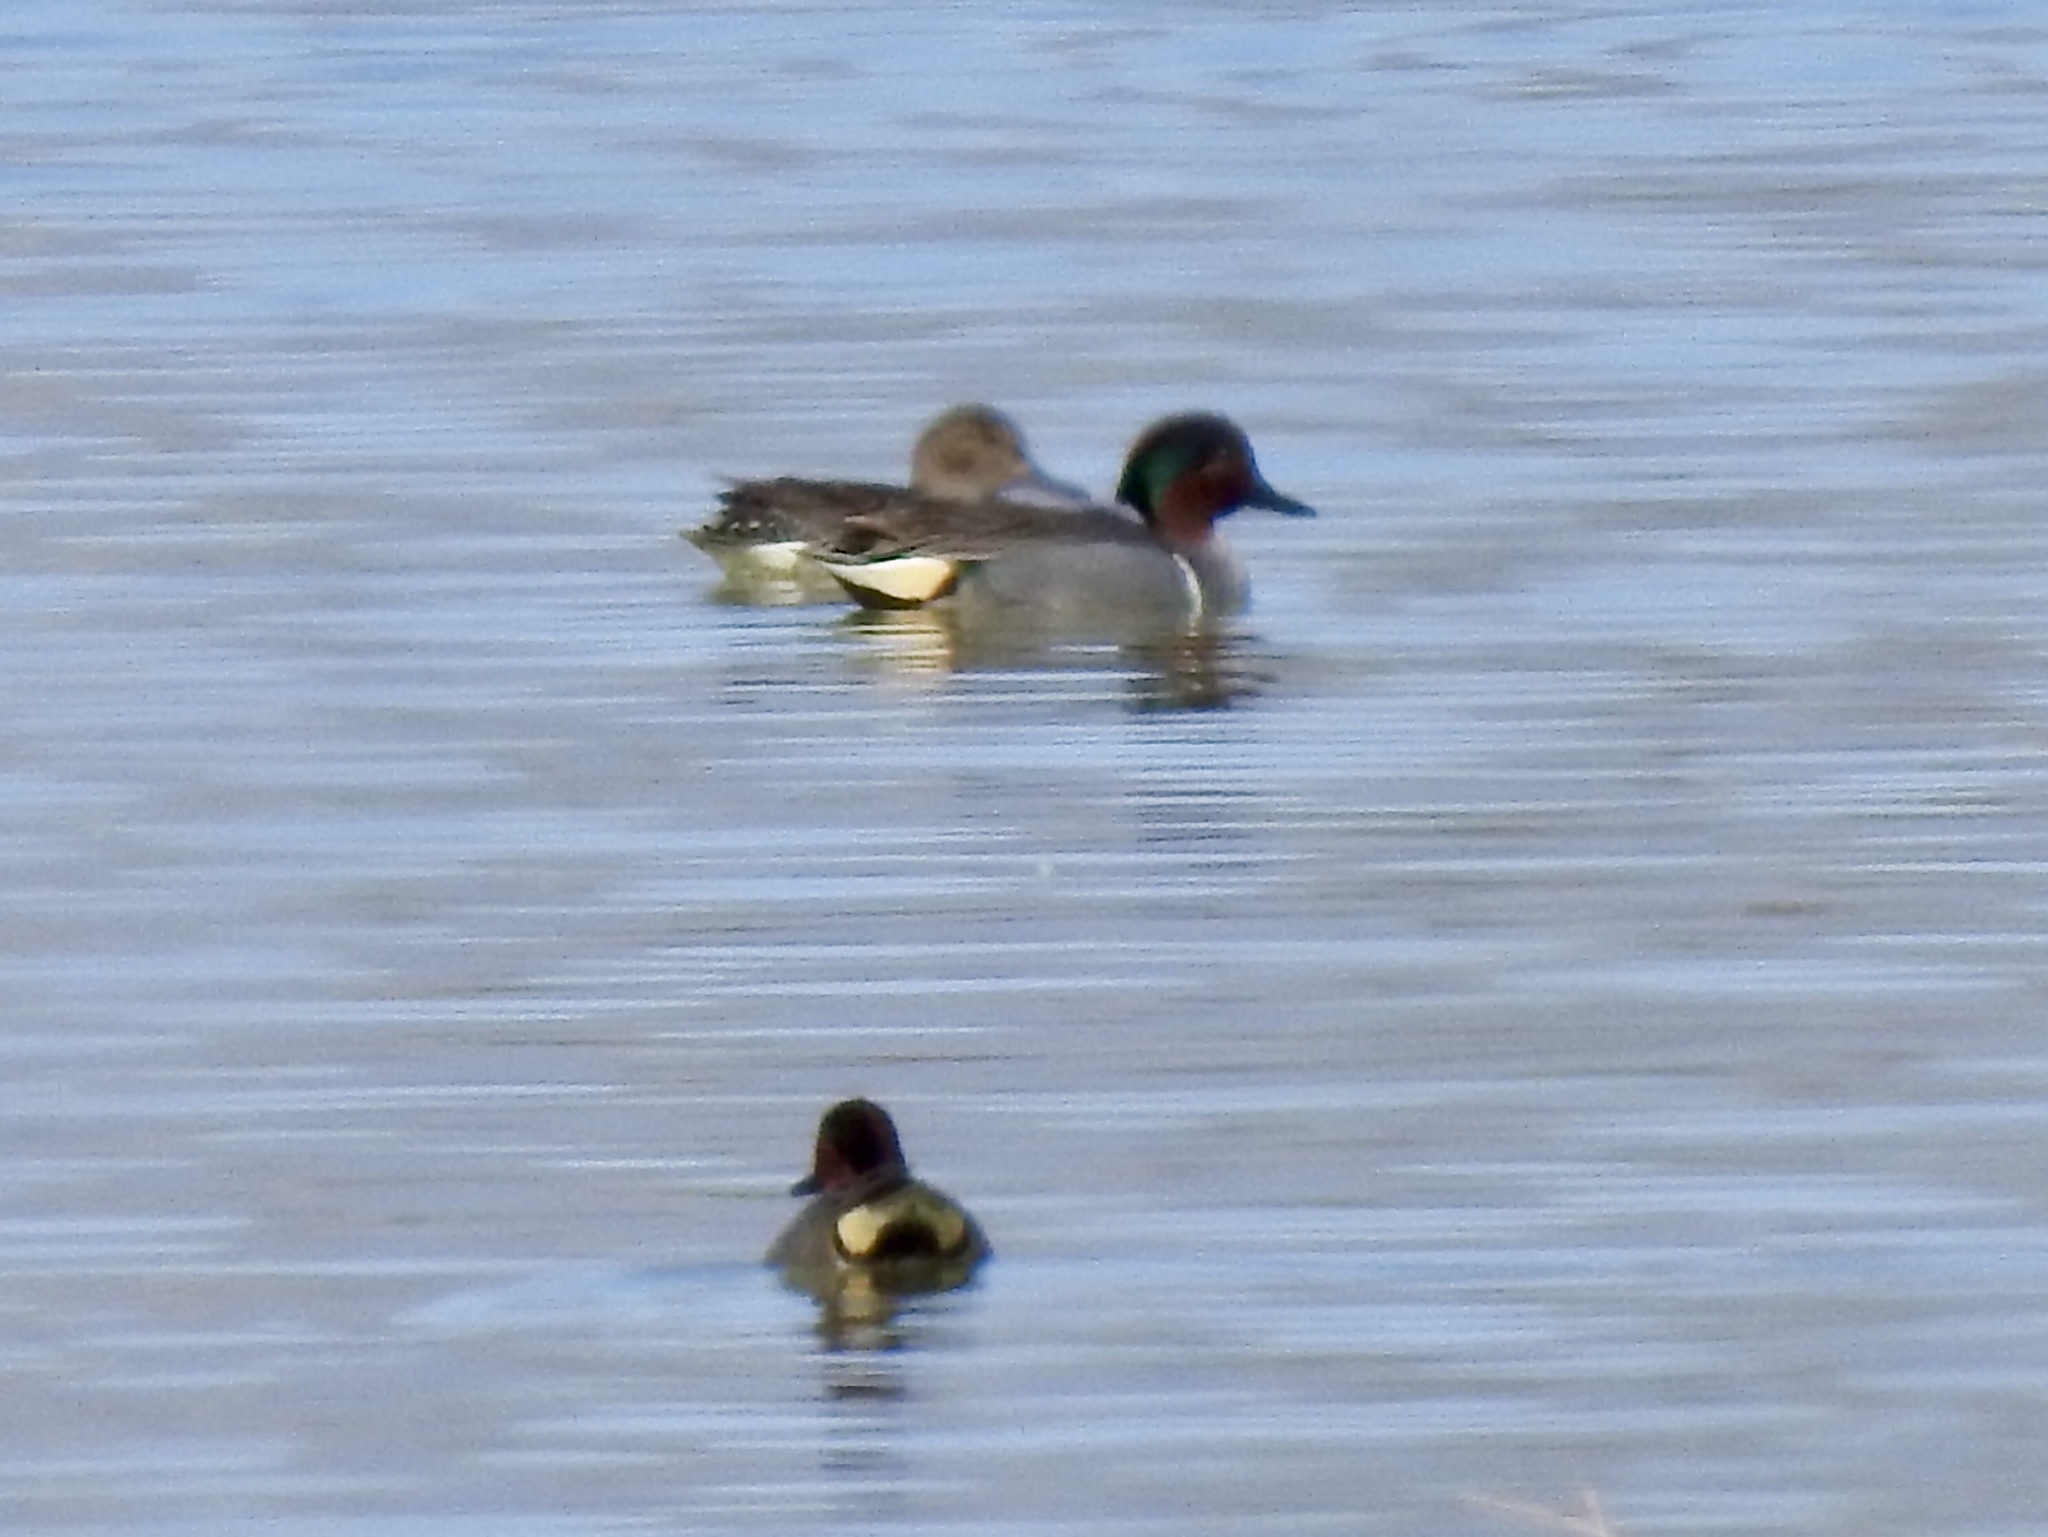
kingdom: Animalia
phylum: Chordata
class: Aves
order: Anseriformes
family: Anatidae
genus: Anas
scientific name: Anas crecca
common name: Eurasian teal
